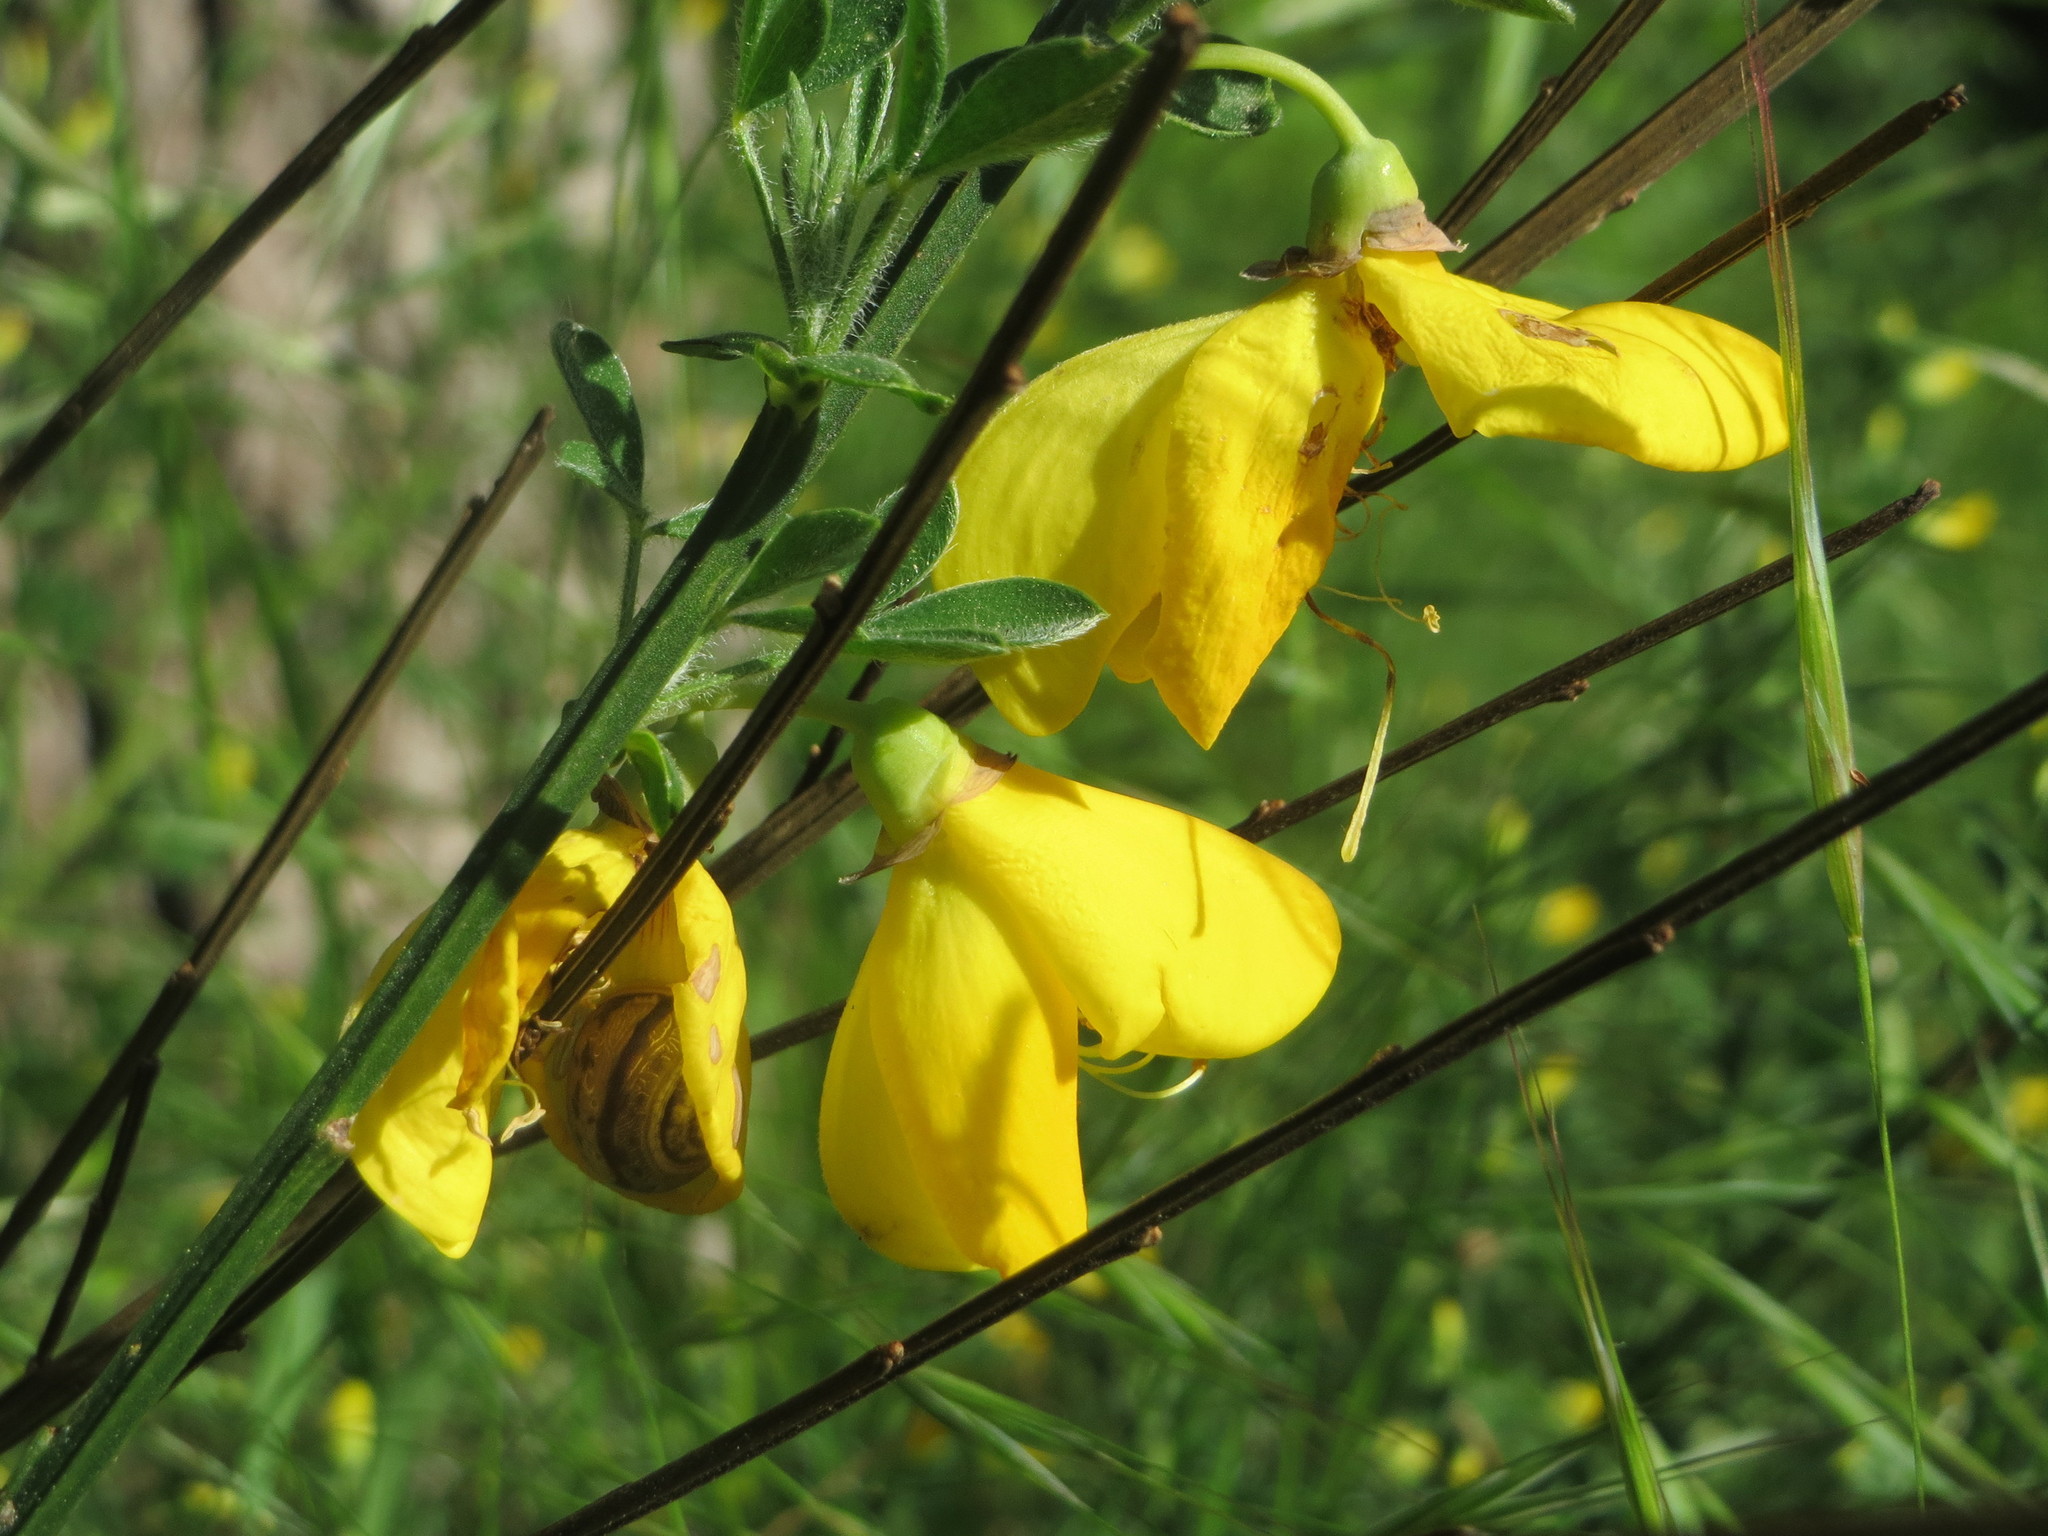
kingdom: Plantae
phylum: Tracheophyta
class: Magnoliopsida
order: Fabales
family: Fabaceae
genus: Cytisus
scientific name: Cytisus scoparius
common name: Scotch broom
